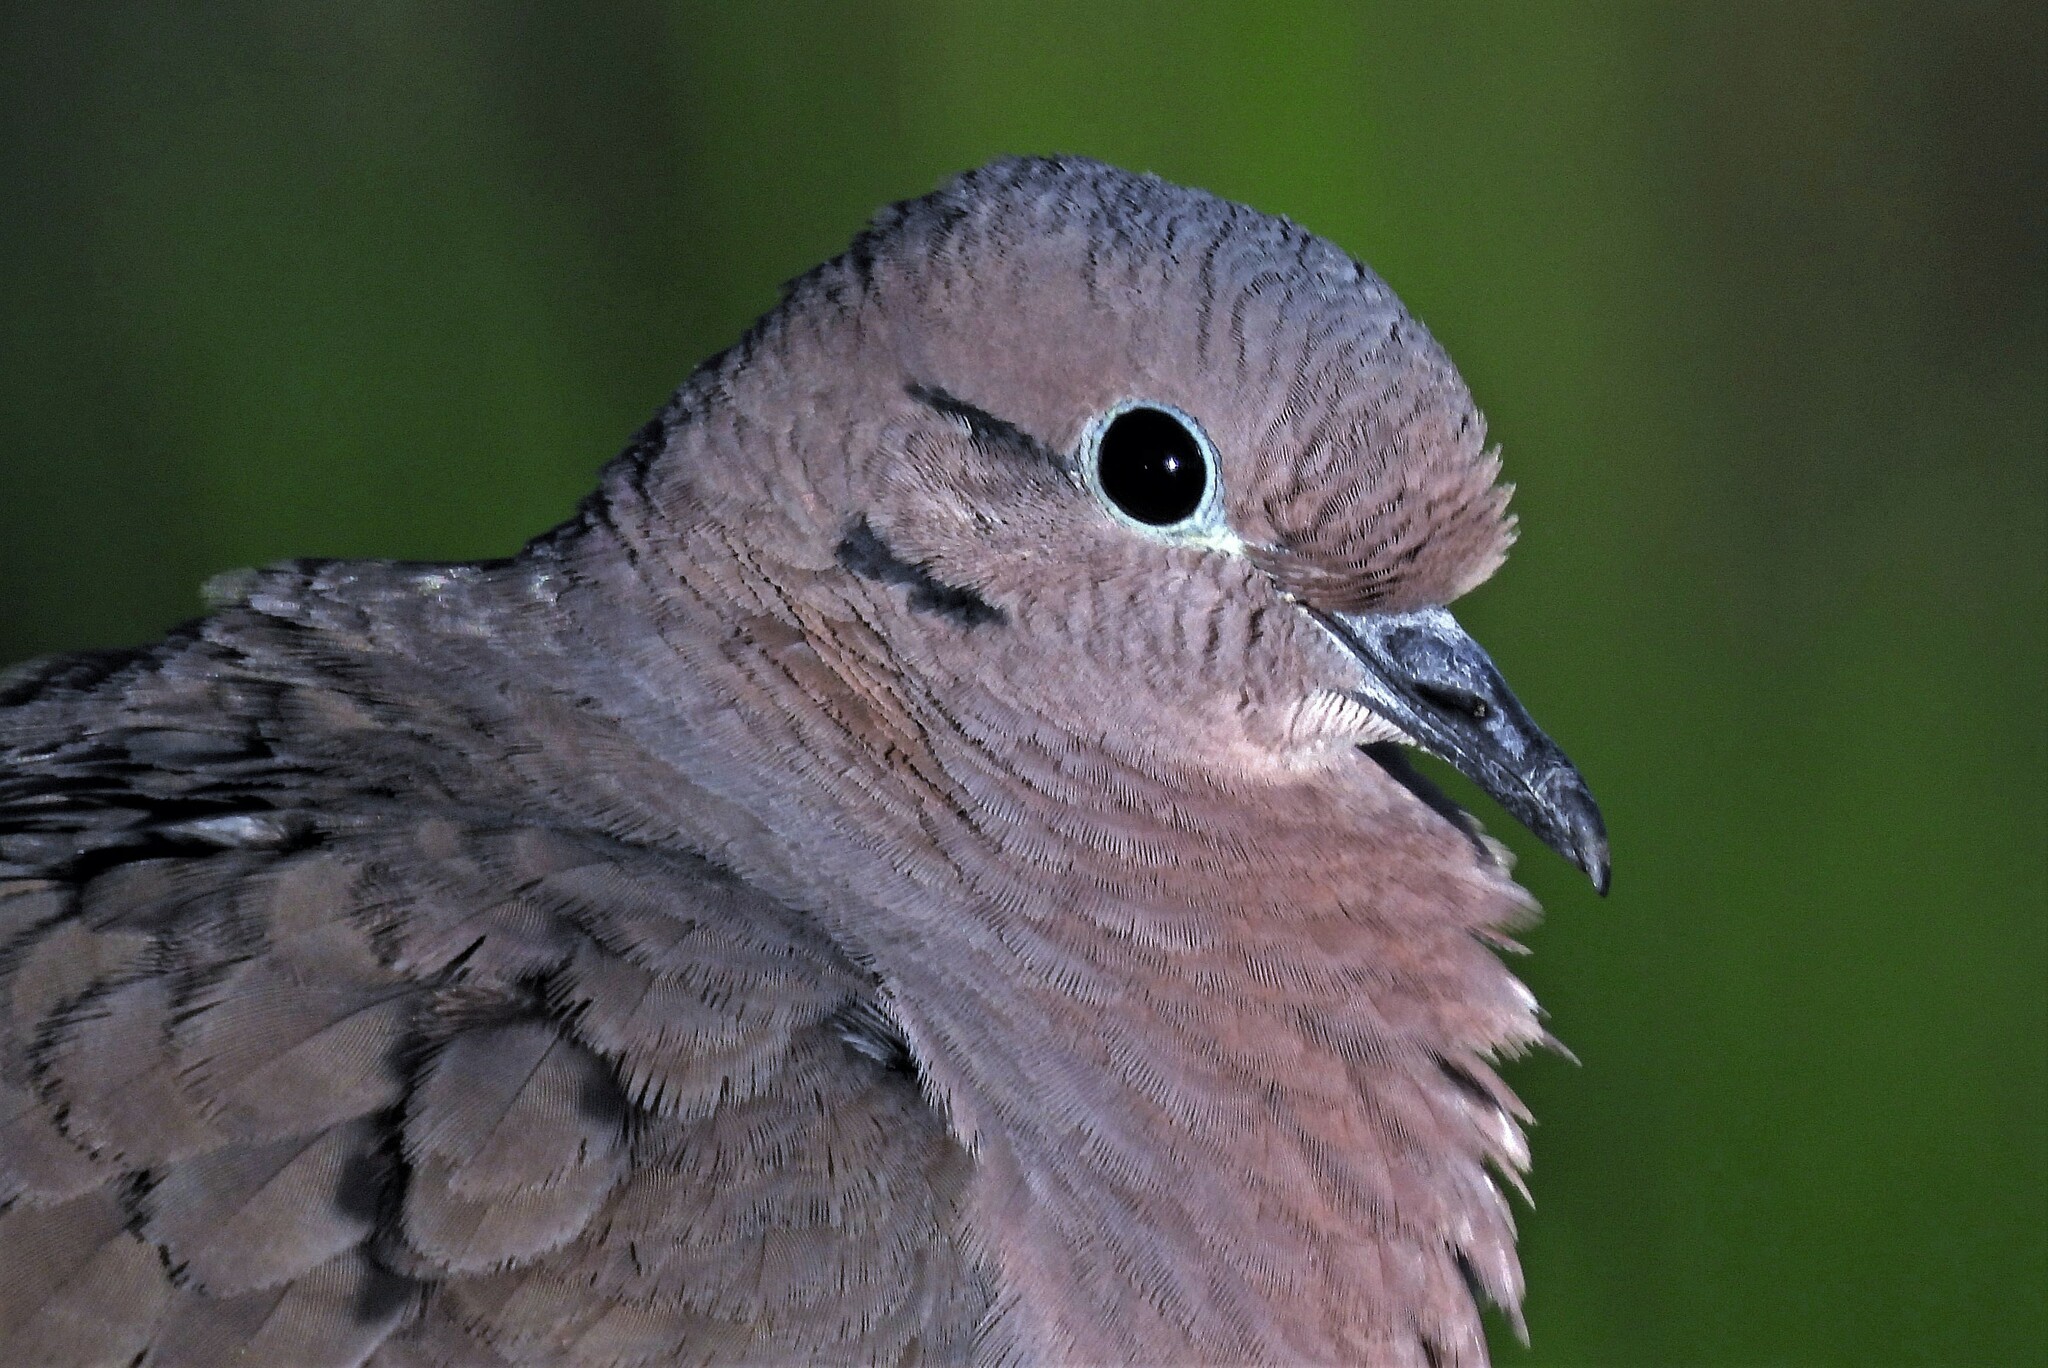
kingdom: Animalia
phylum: Chordata
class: Aves
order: Columbiformes
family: Columbidae
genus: Zenaida
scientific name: Zenaida auriculata
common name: Eared dove
